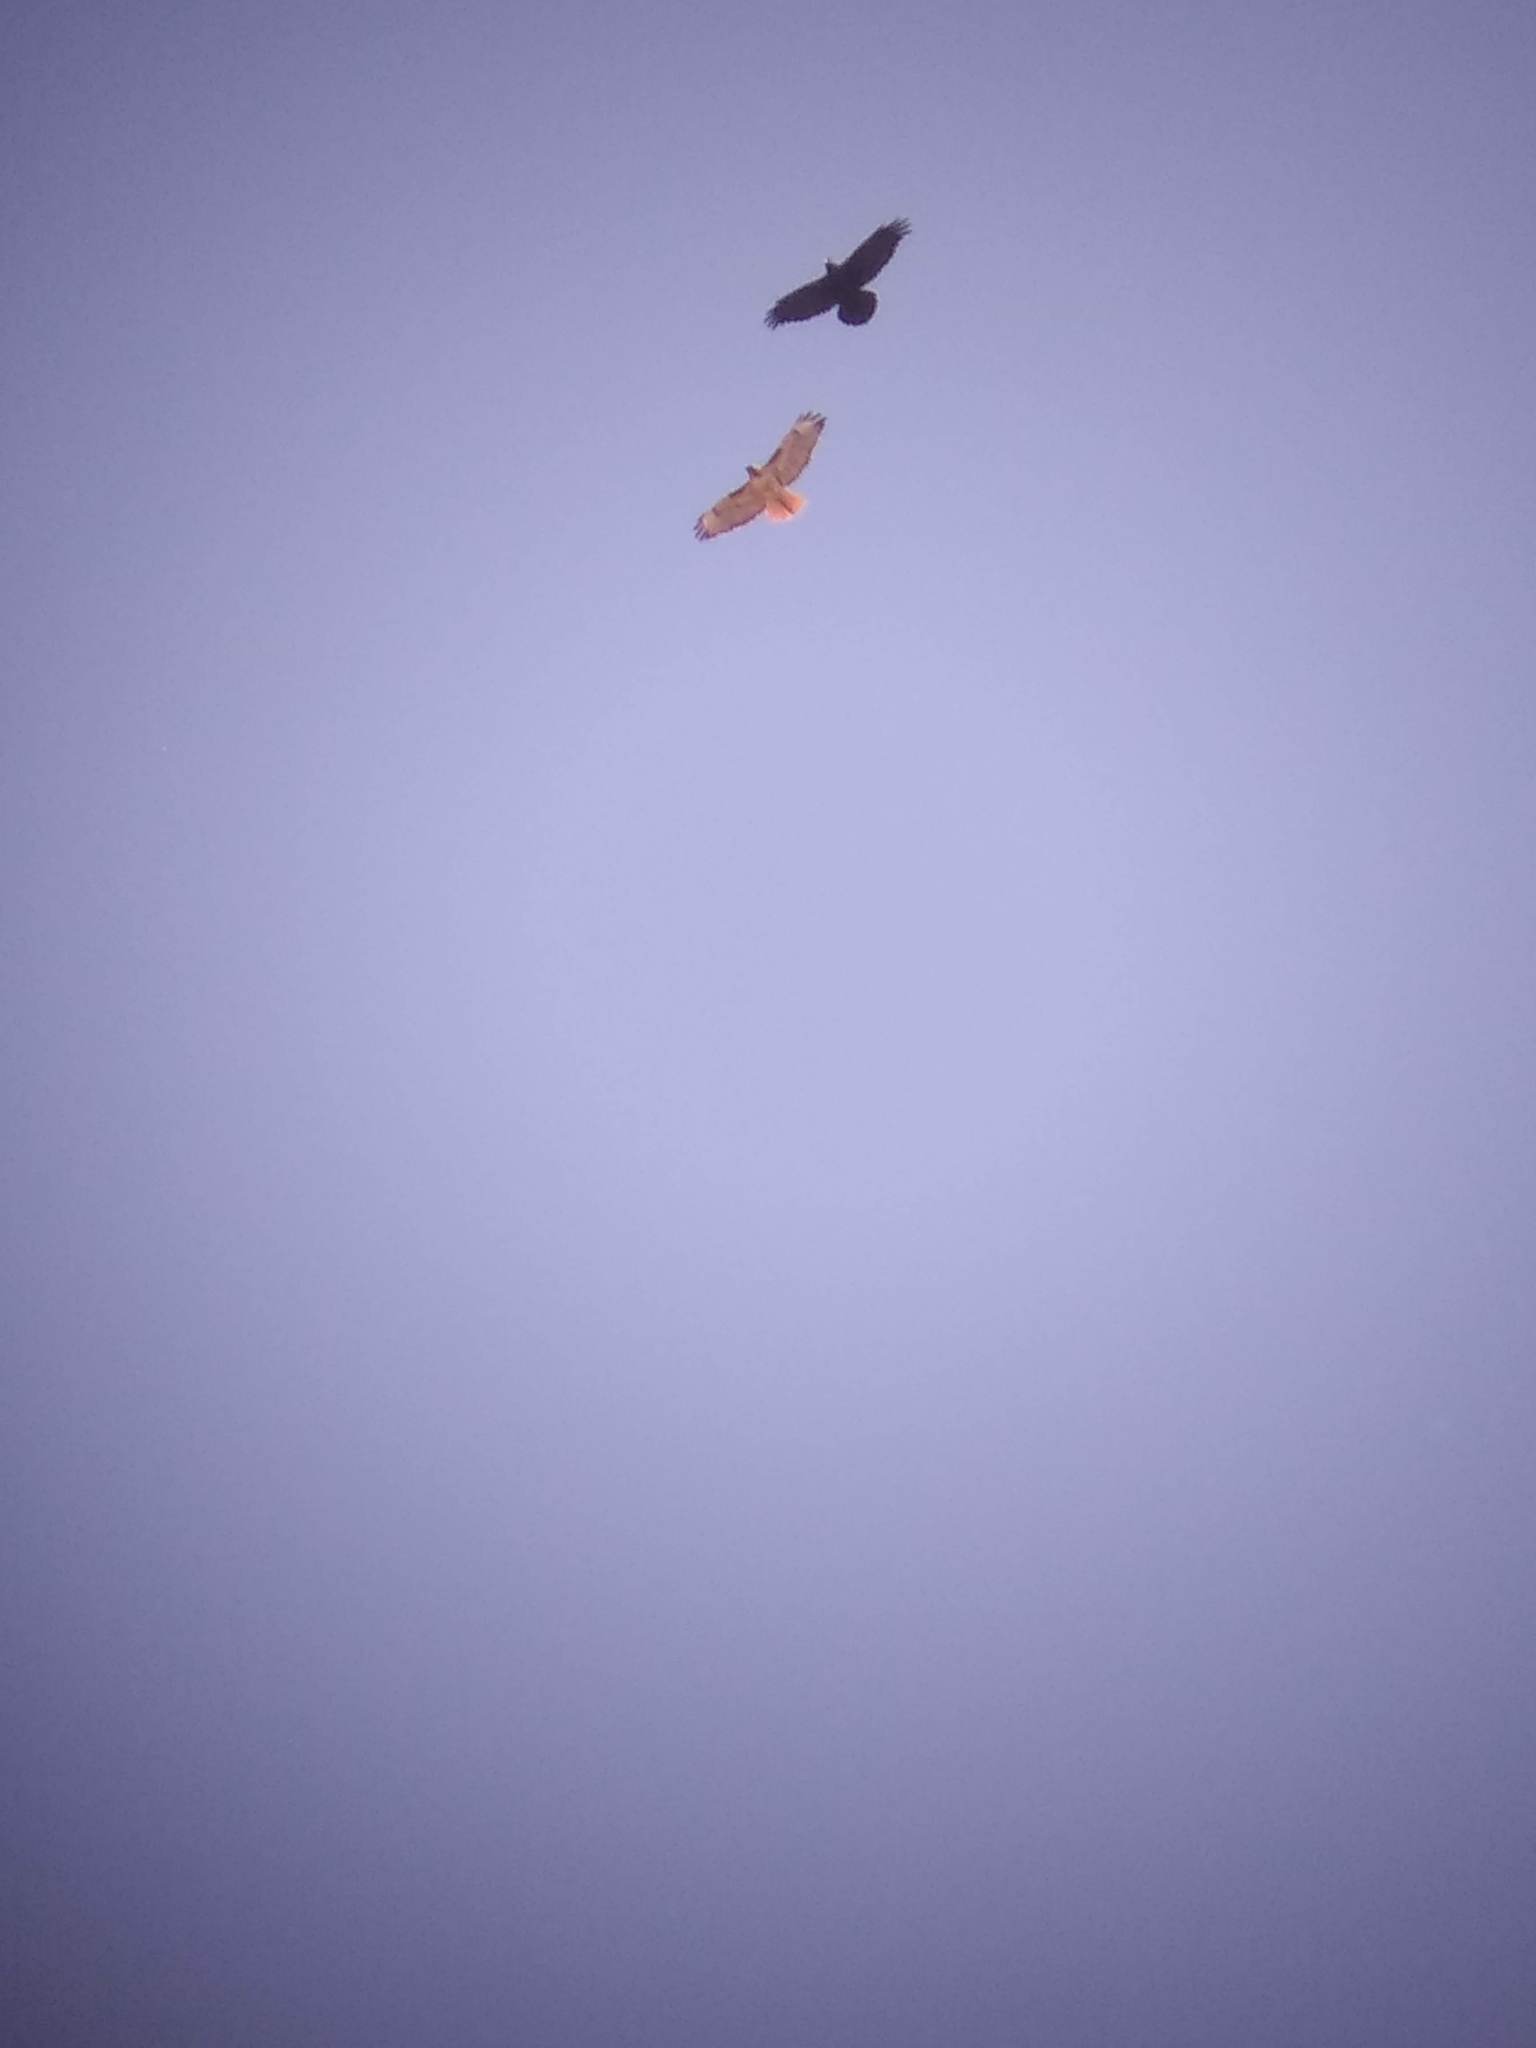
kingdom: Animalia
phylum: Chordata
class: Aves
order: Accipitriformes
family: Accipitridae
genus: Buteo
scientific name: Buteo jamaicensis
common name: Red-tailed hawk
